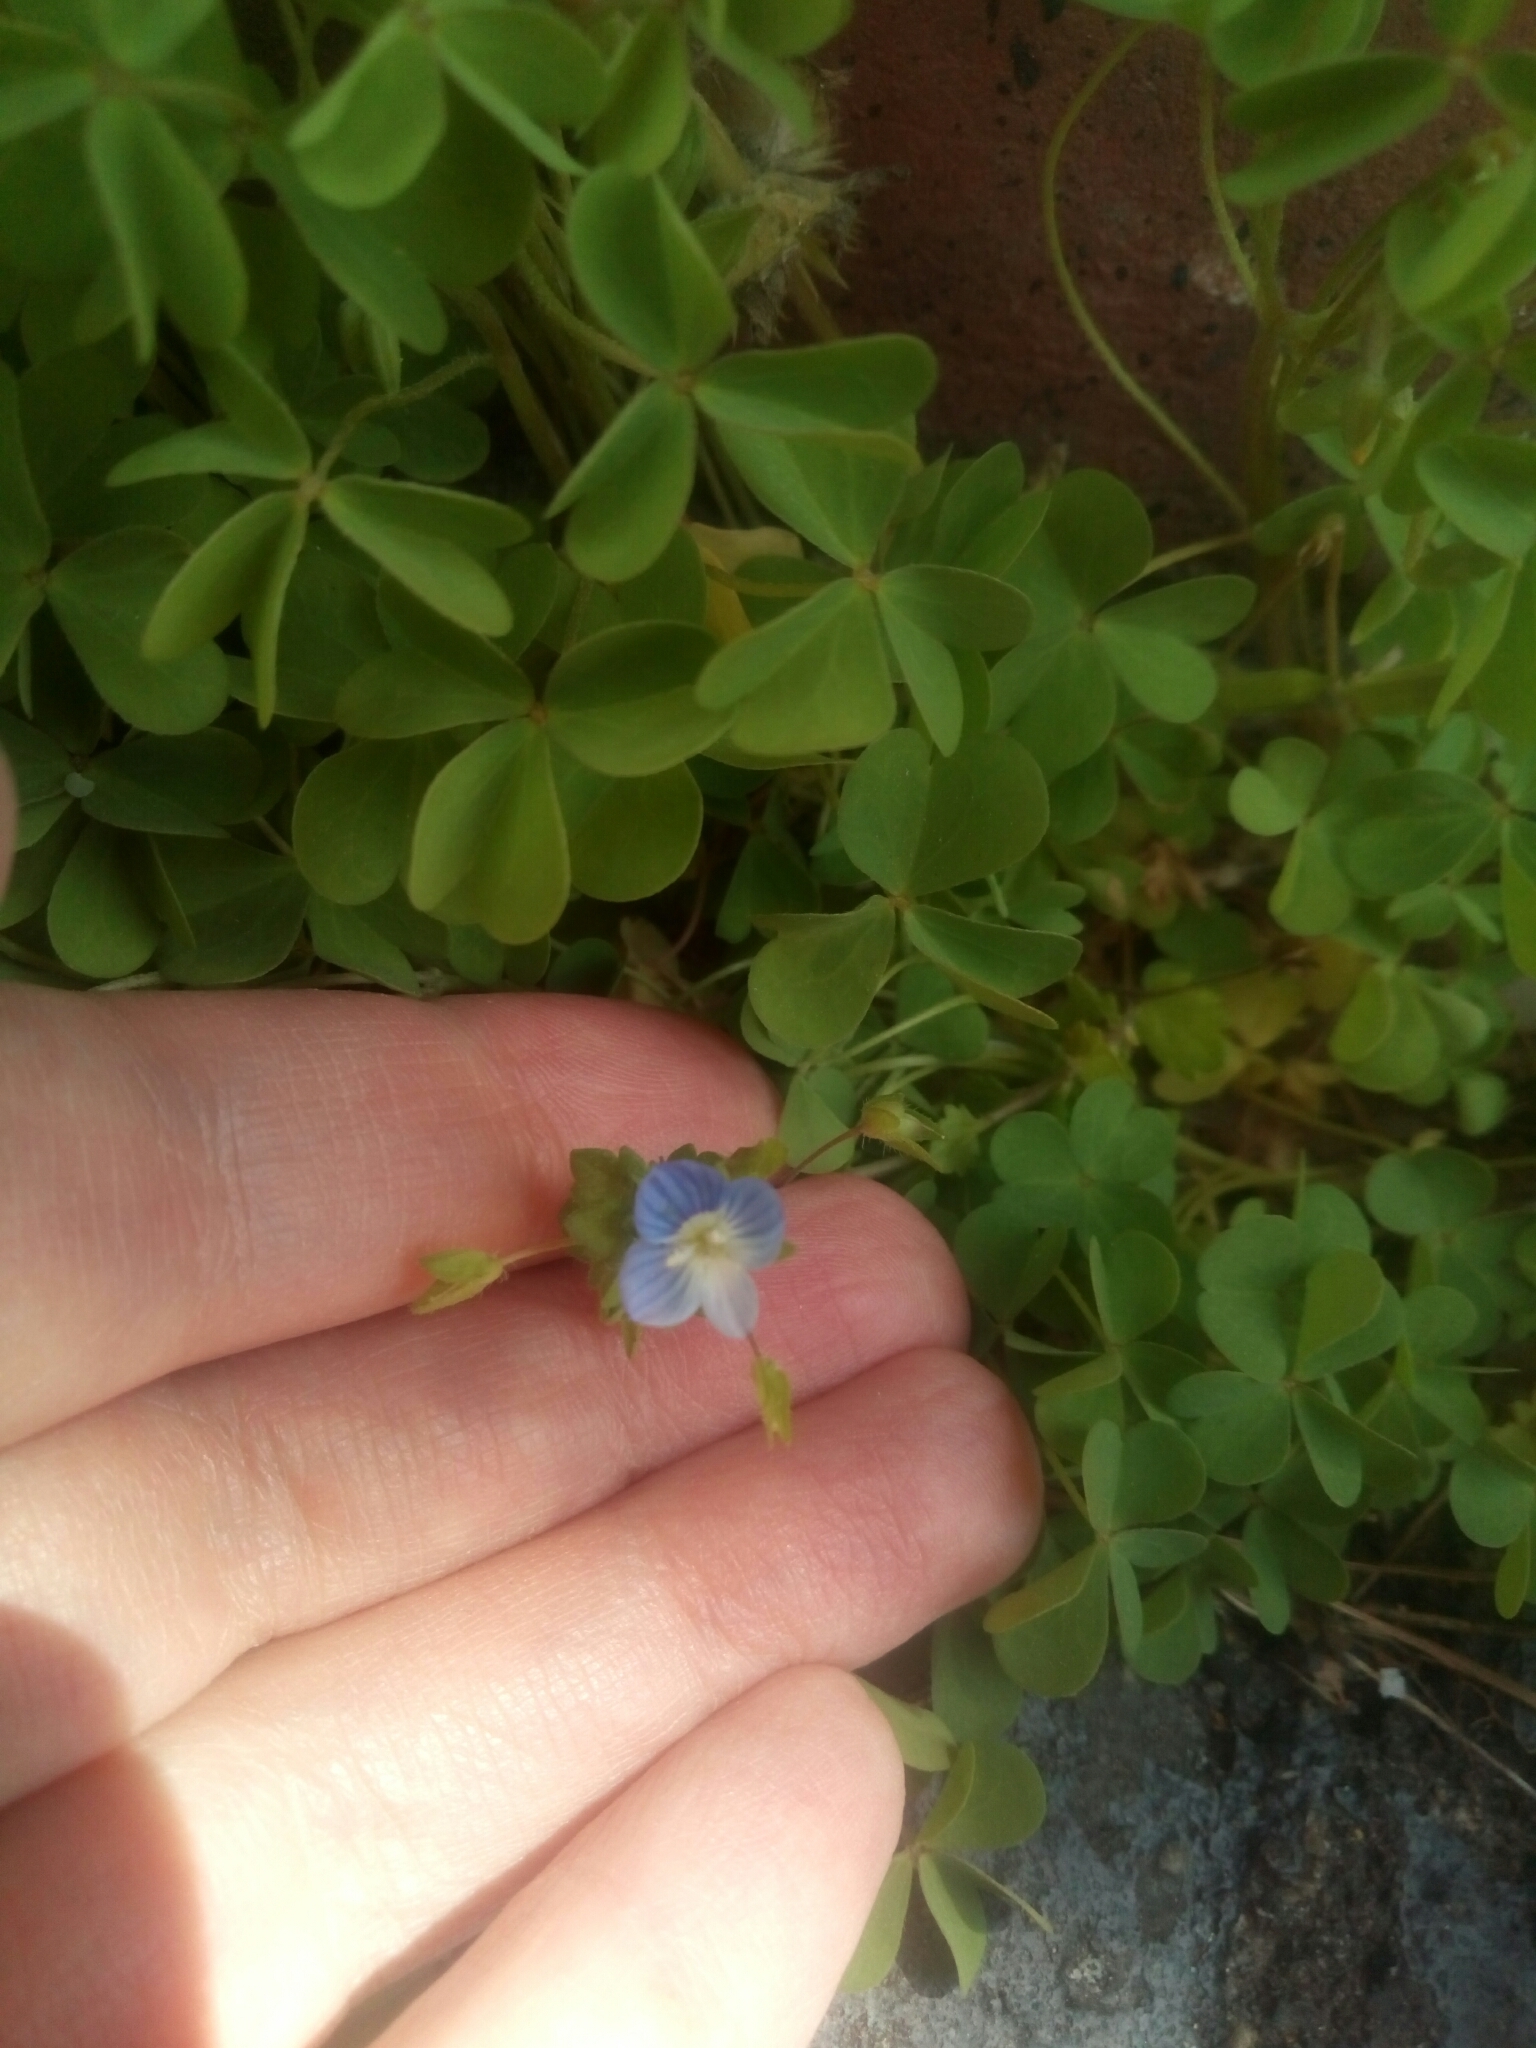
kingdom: Plantae
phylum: Tracheophyta
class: Magnoliopsida
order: Lamiales
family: Plantaginaceae
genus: Veronica
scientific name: Veronica persica
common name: Common field-speedwell
